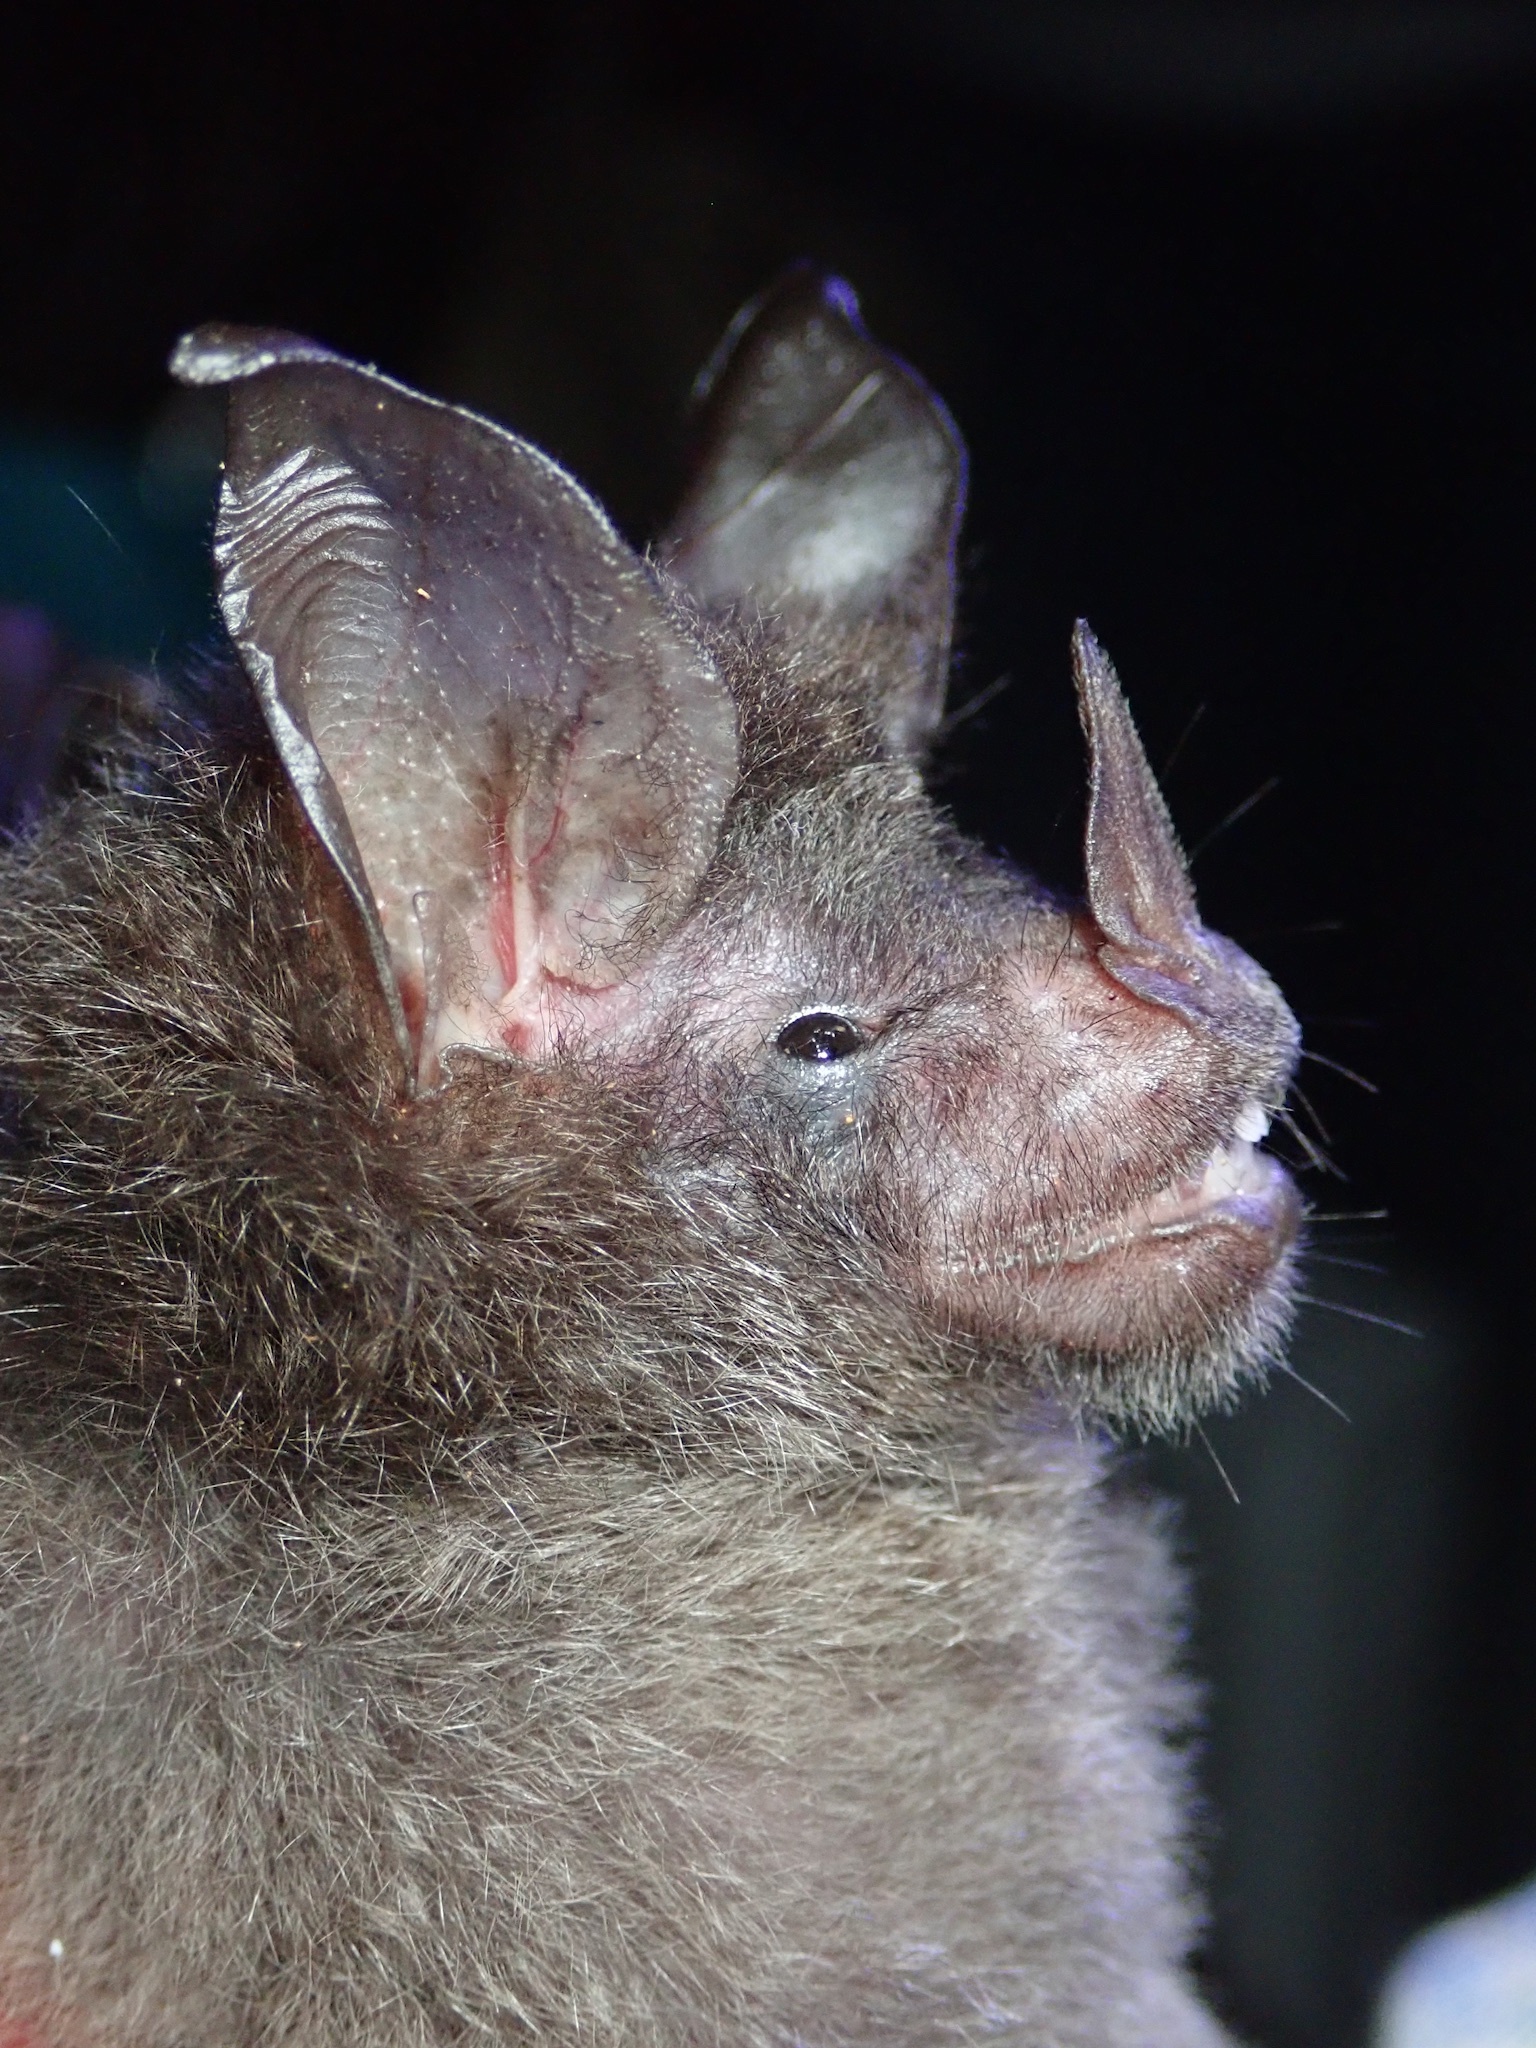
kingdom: Animalia
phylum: Chordata
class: Mammalia
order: Chiroptera
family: Phyllostomidae
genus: Glyphonycteris
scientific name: Glyphonycteris daviesi
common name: Graybeard bat
